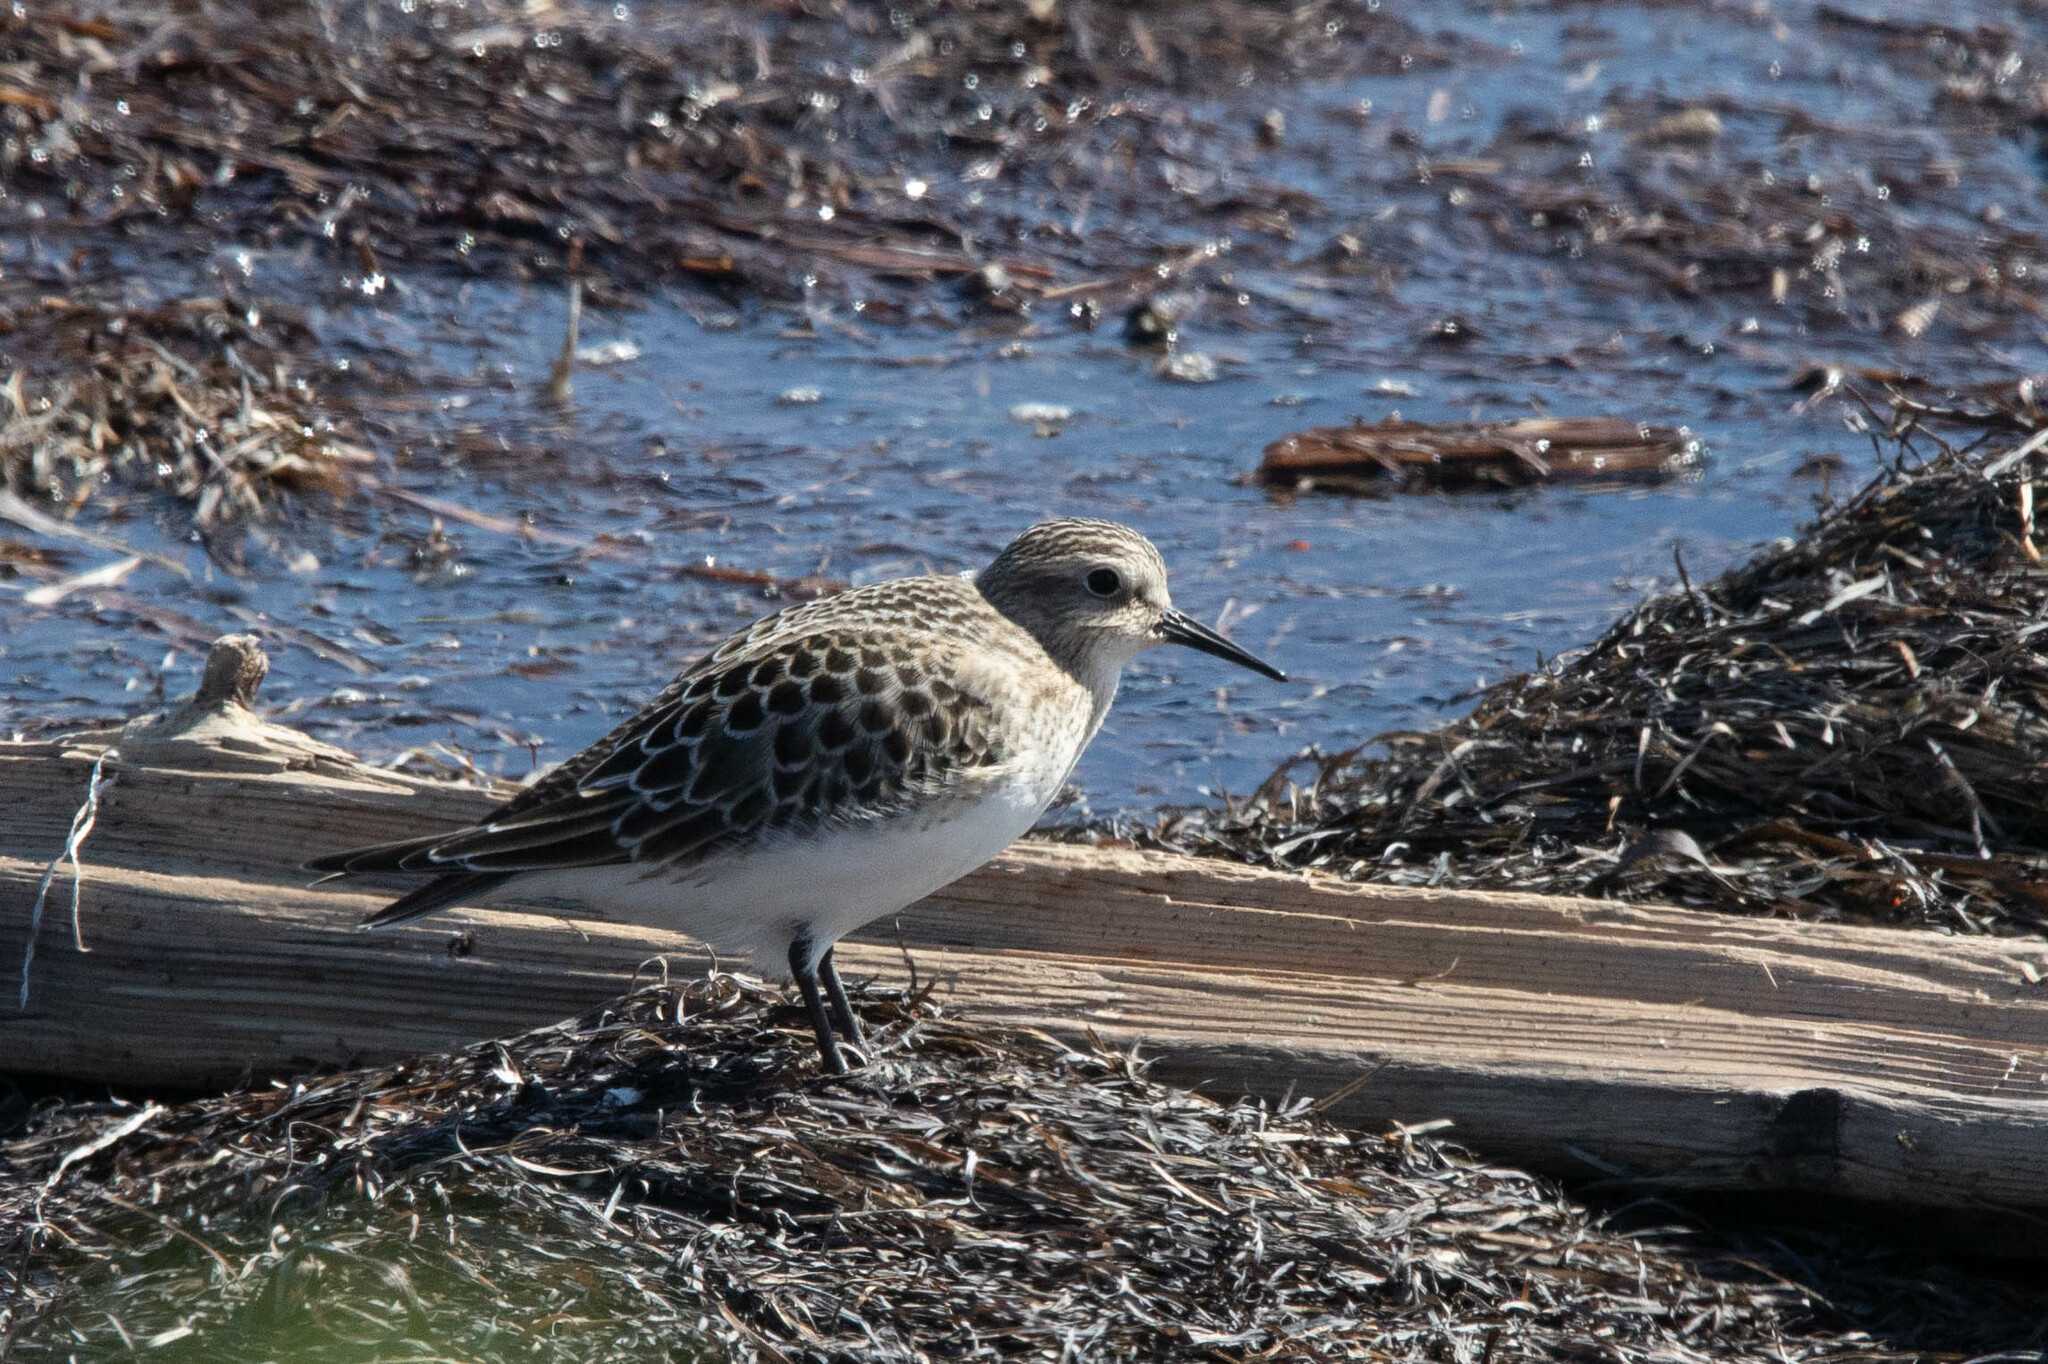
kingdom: Animalia
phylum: Chordata
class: Aves
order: Charadriiformes
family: Scolopacidae
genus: Calidris
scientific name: Calidris bairdii
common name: Baird's sandpiper
